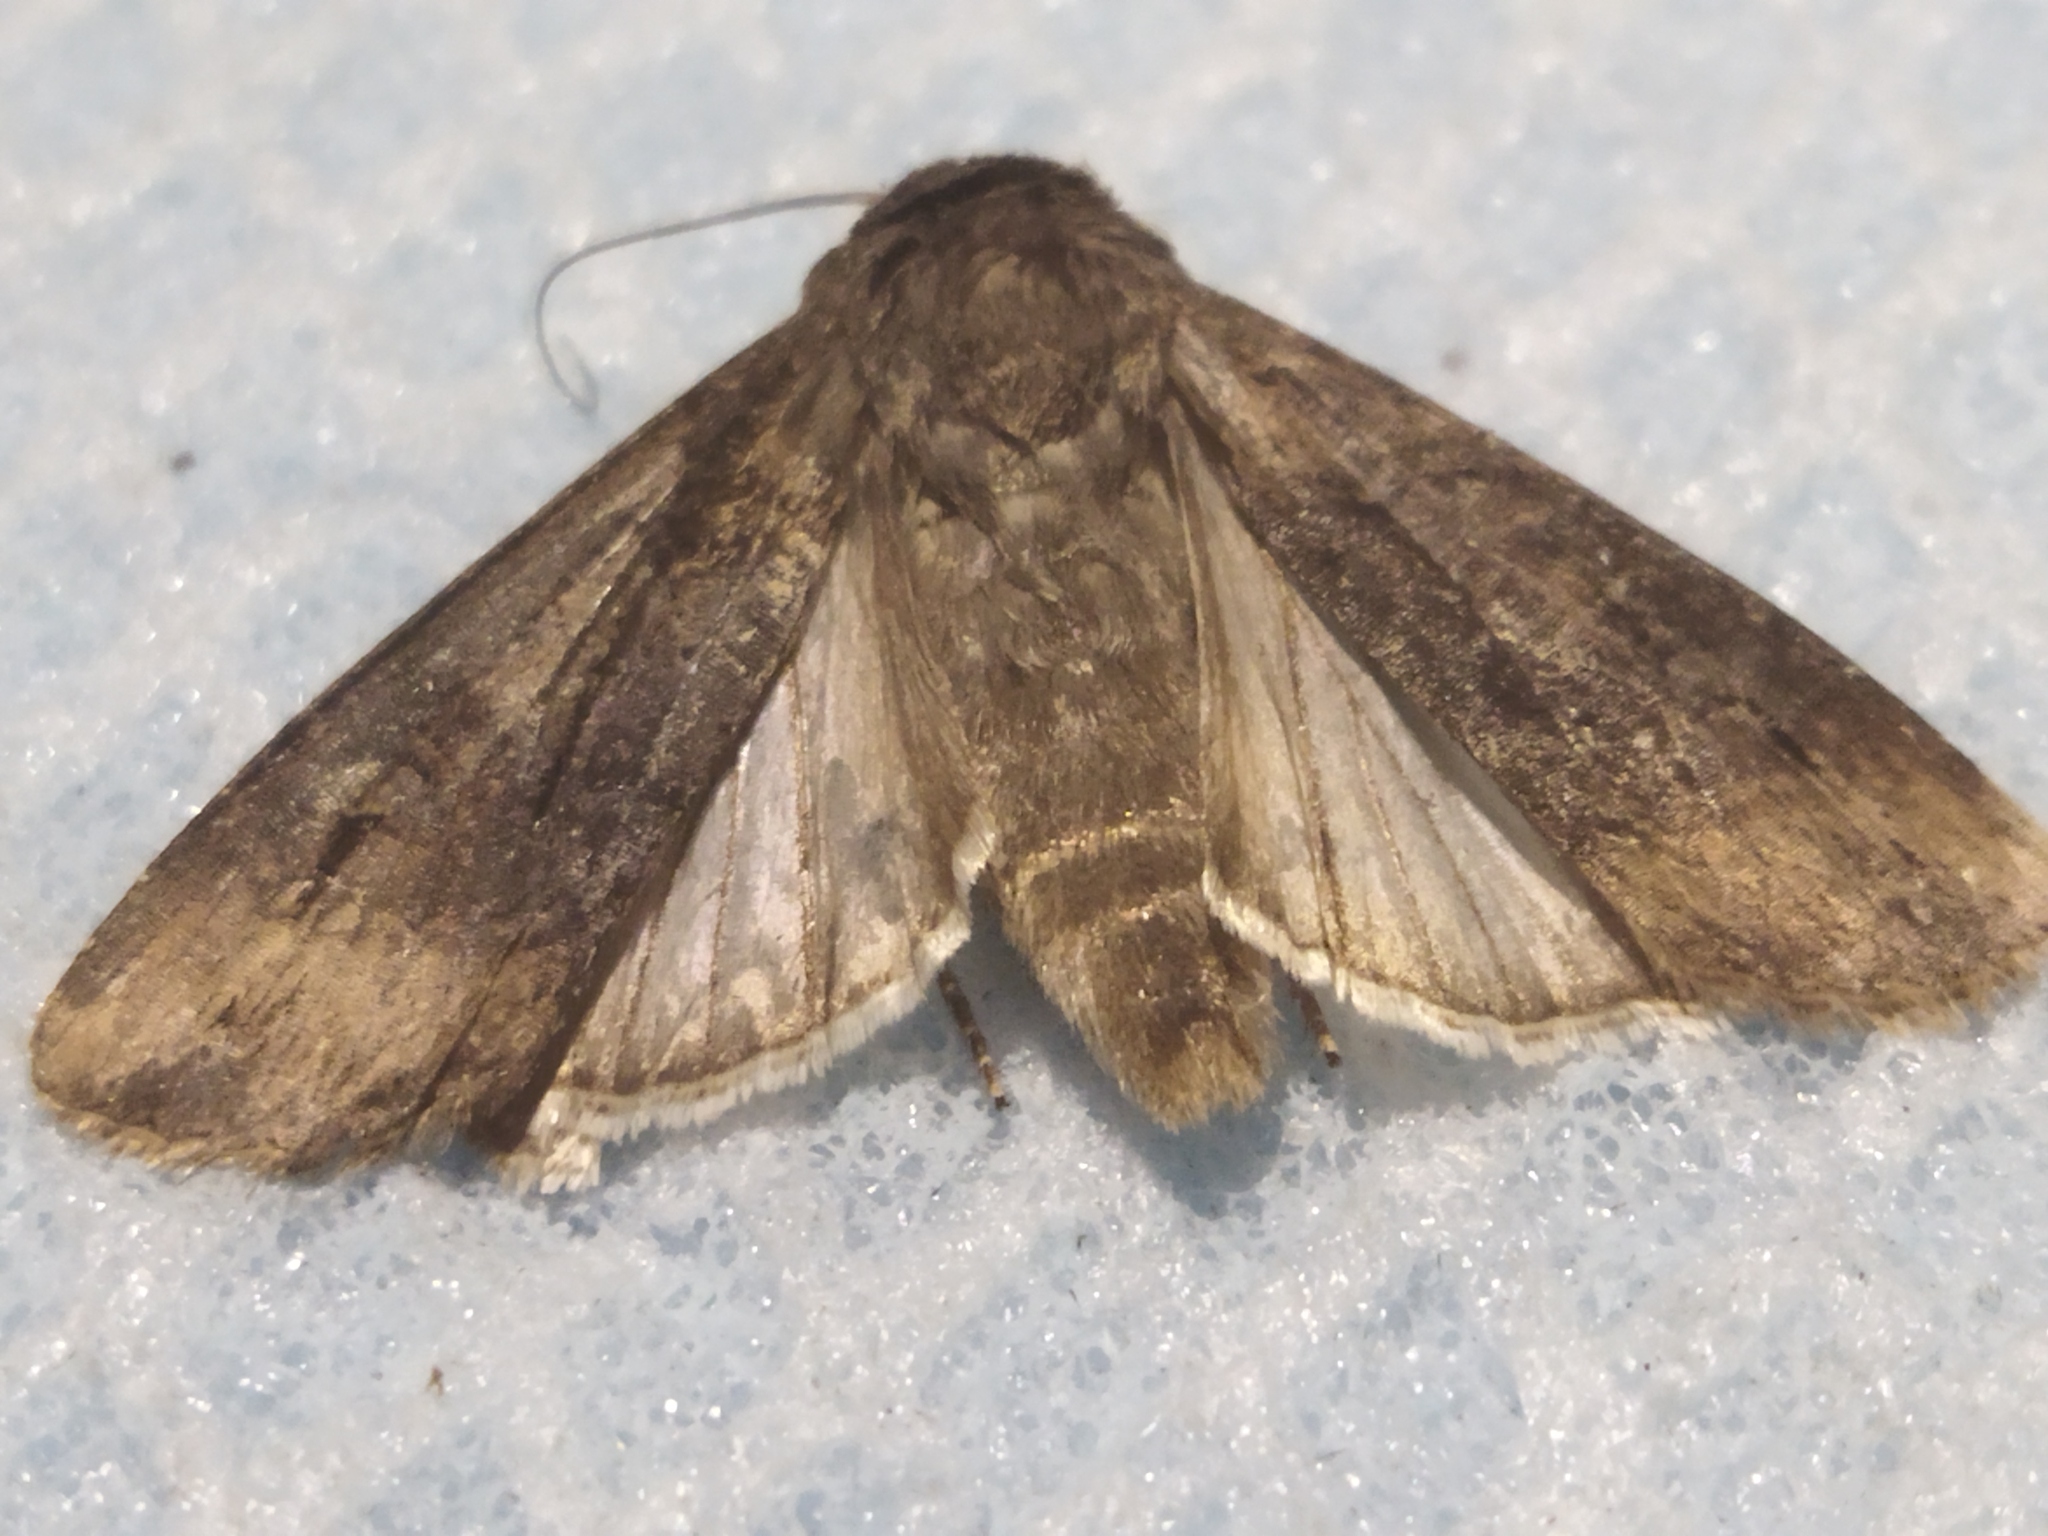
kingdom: Animalia
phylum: Arthropoda
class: Insecta
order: Lepidoptera
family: Noctuidae
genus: Agrotis
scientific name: Agrotis ipsilon
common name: Dark sword-grass
